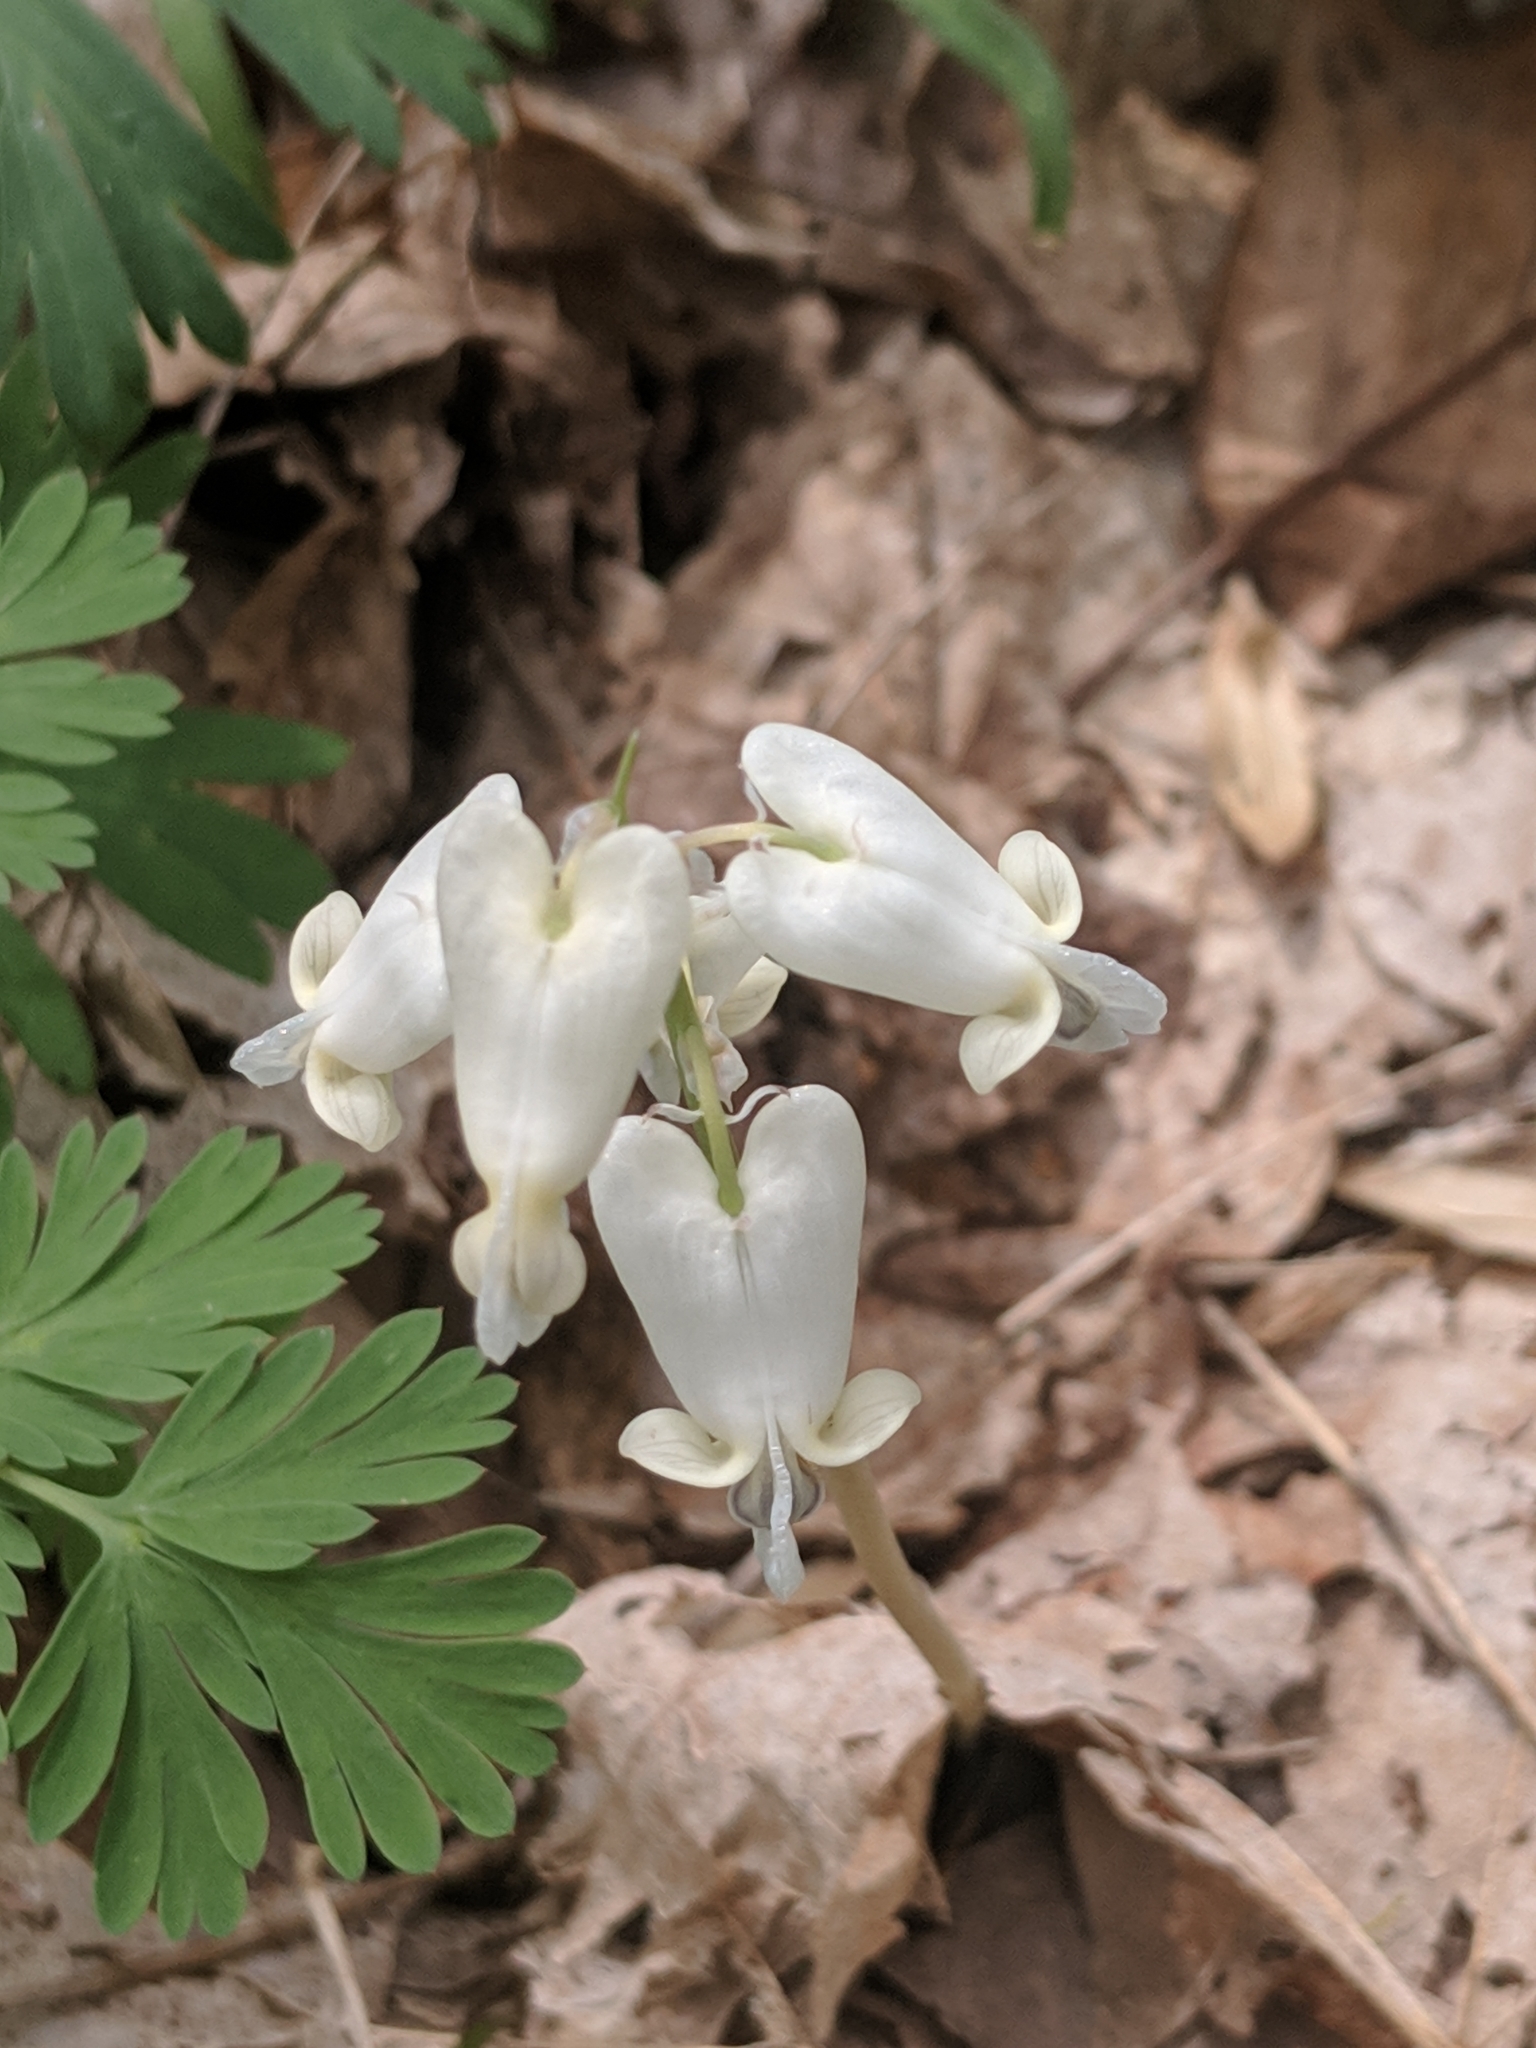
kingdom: Plantae
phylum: Tracheophyta
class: Magnoliopsida
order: Ranunculales
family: Papaveraceae
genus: Dicentra
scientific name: Dicentra canadensis
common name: Squirrel-corn
